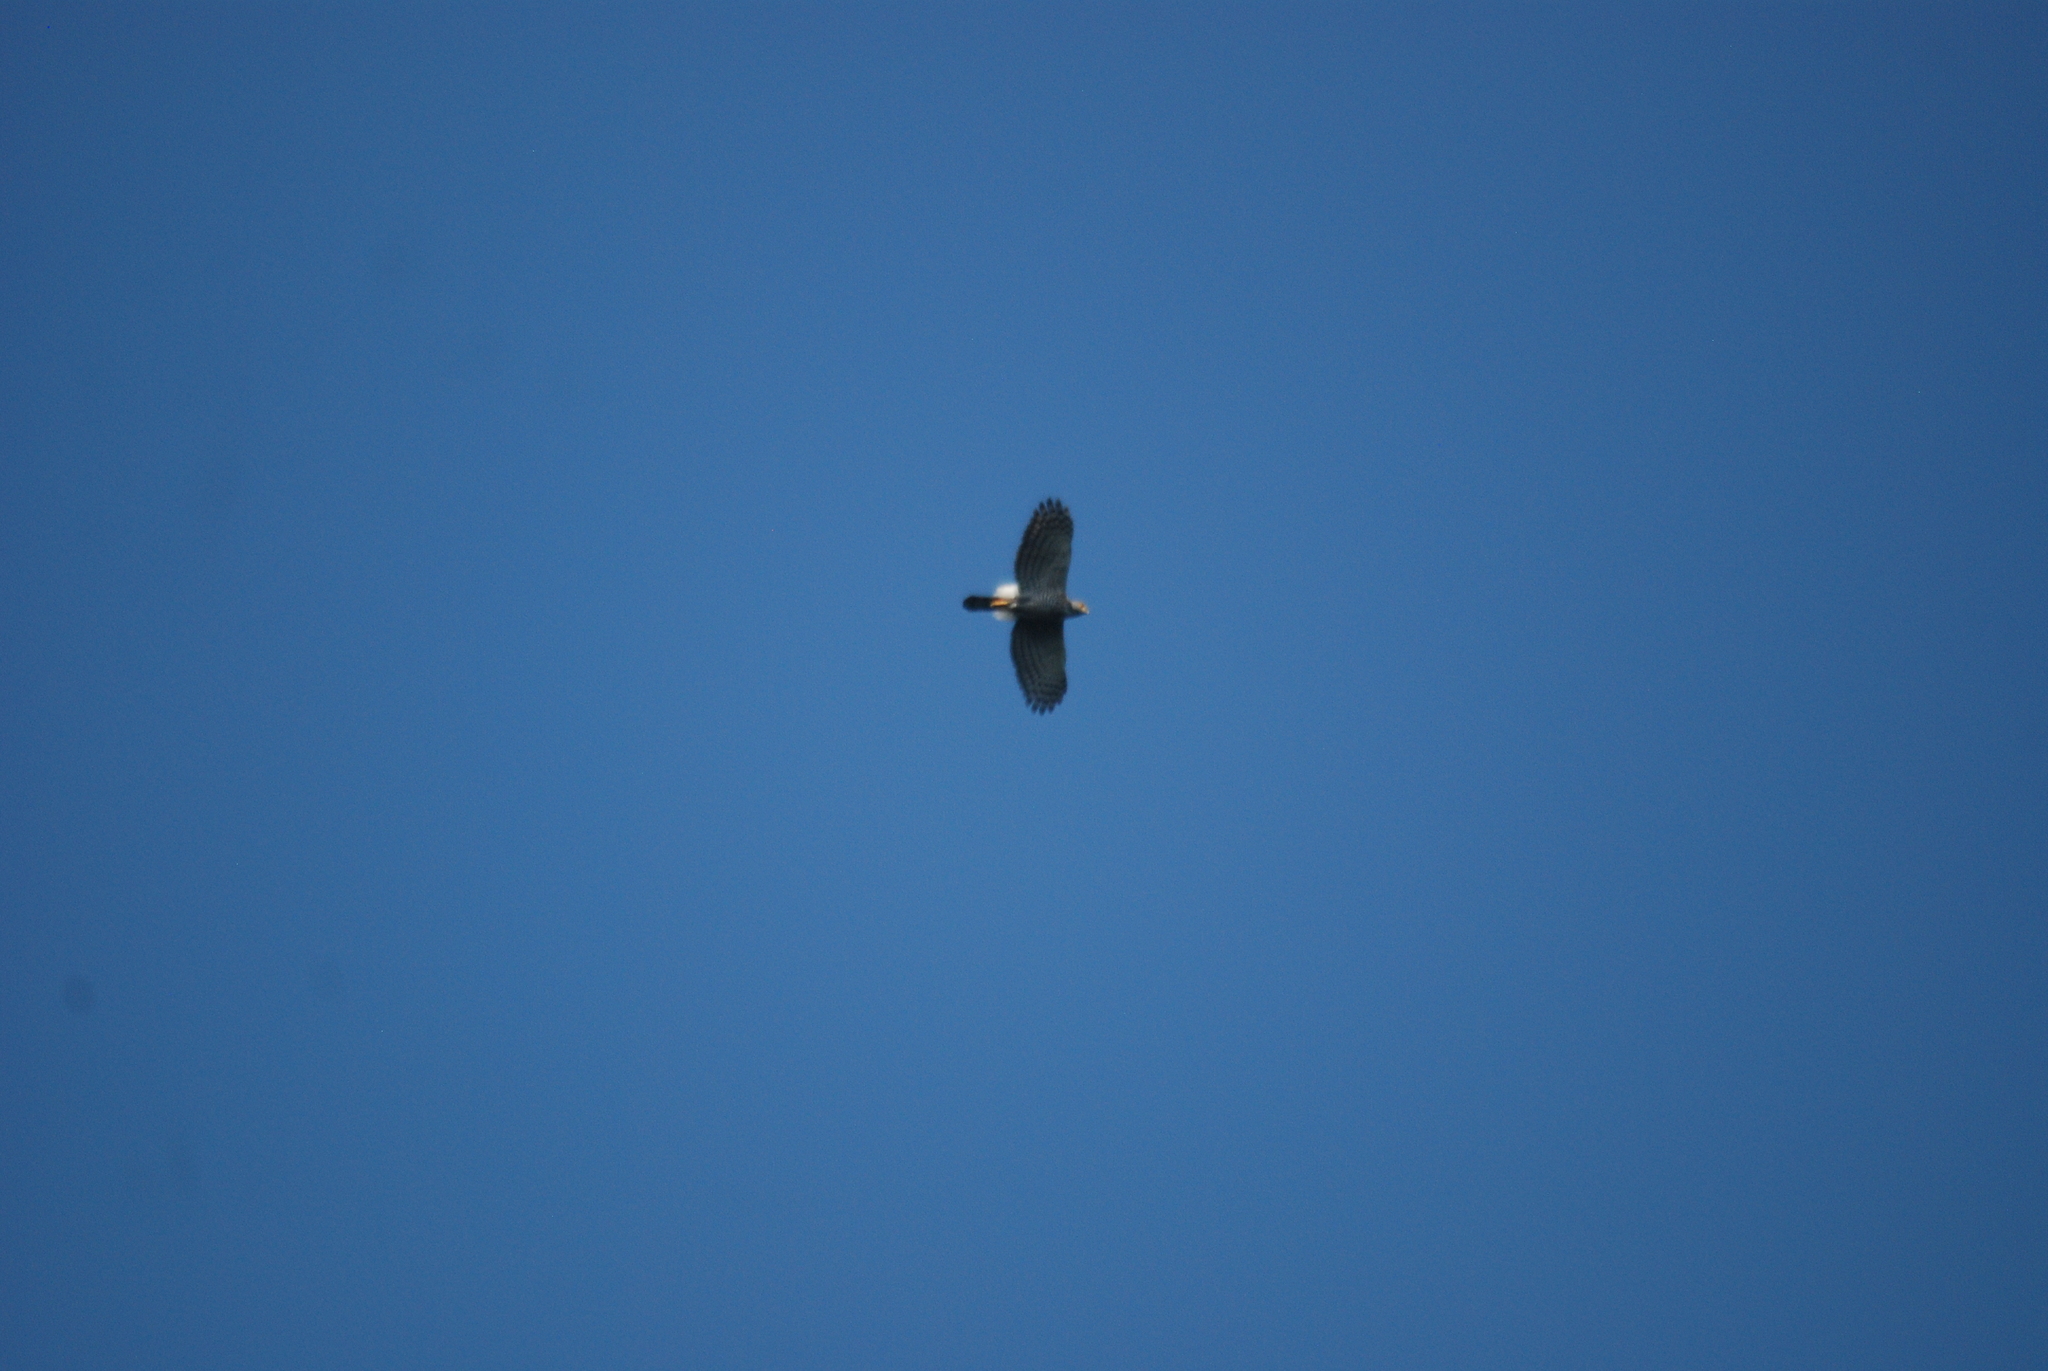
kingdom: Animalia
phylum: Chordata
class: Aves
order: Accipitriformes
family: Accipitridae
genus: Accipiter
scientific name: Accipiter trivirgatus
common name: Crested goshawk
